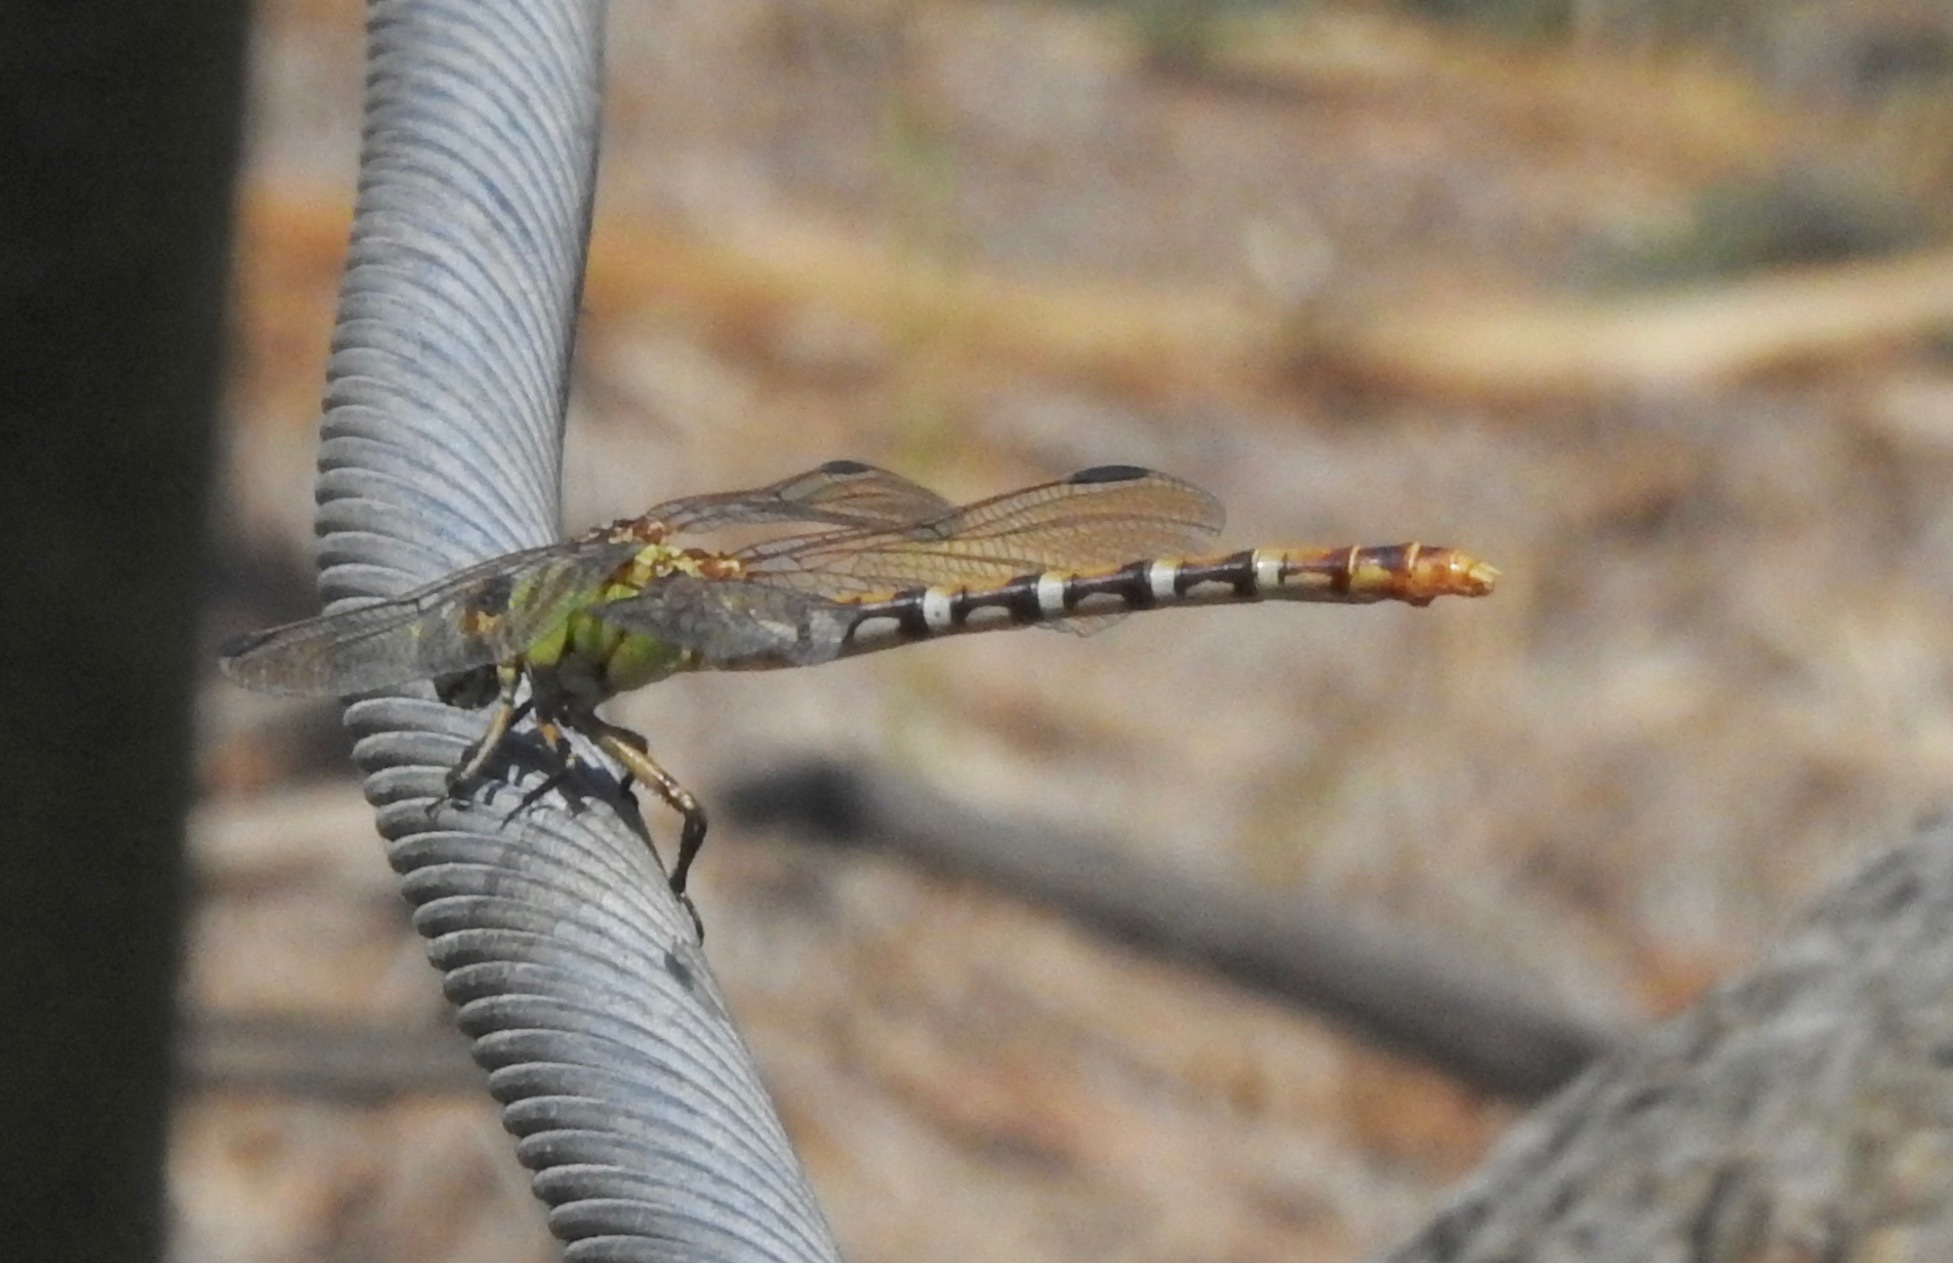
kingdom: Animalia
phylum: Arthropoda
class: Insecta
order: Odonata
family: Gomphidae
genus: Erpetogomphus
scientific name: Erpetogomphus designatus
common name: Eastern ringtail
